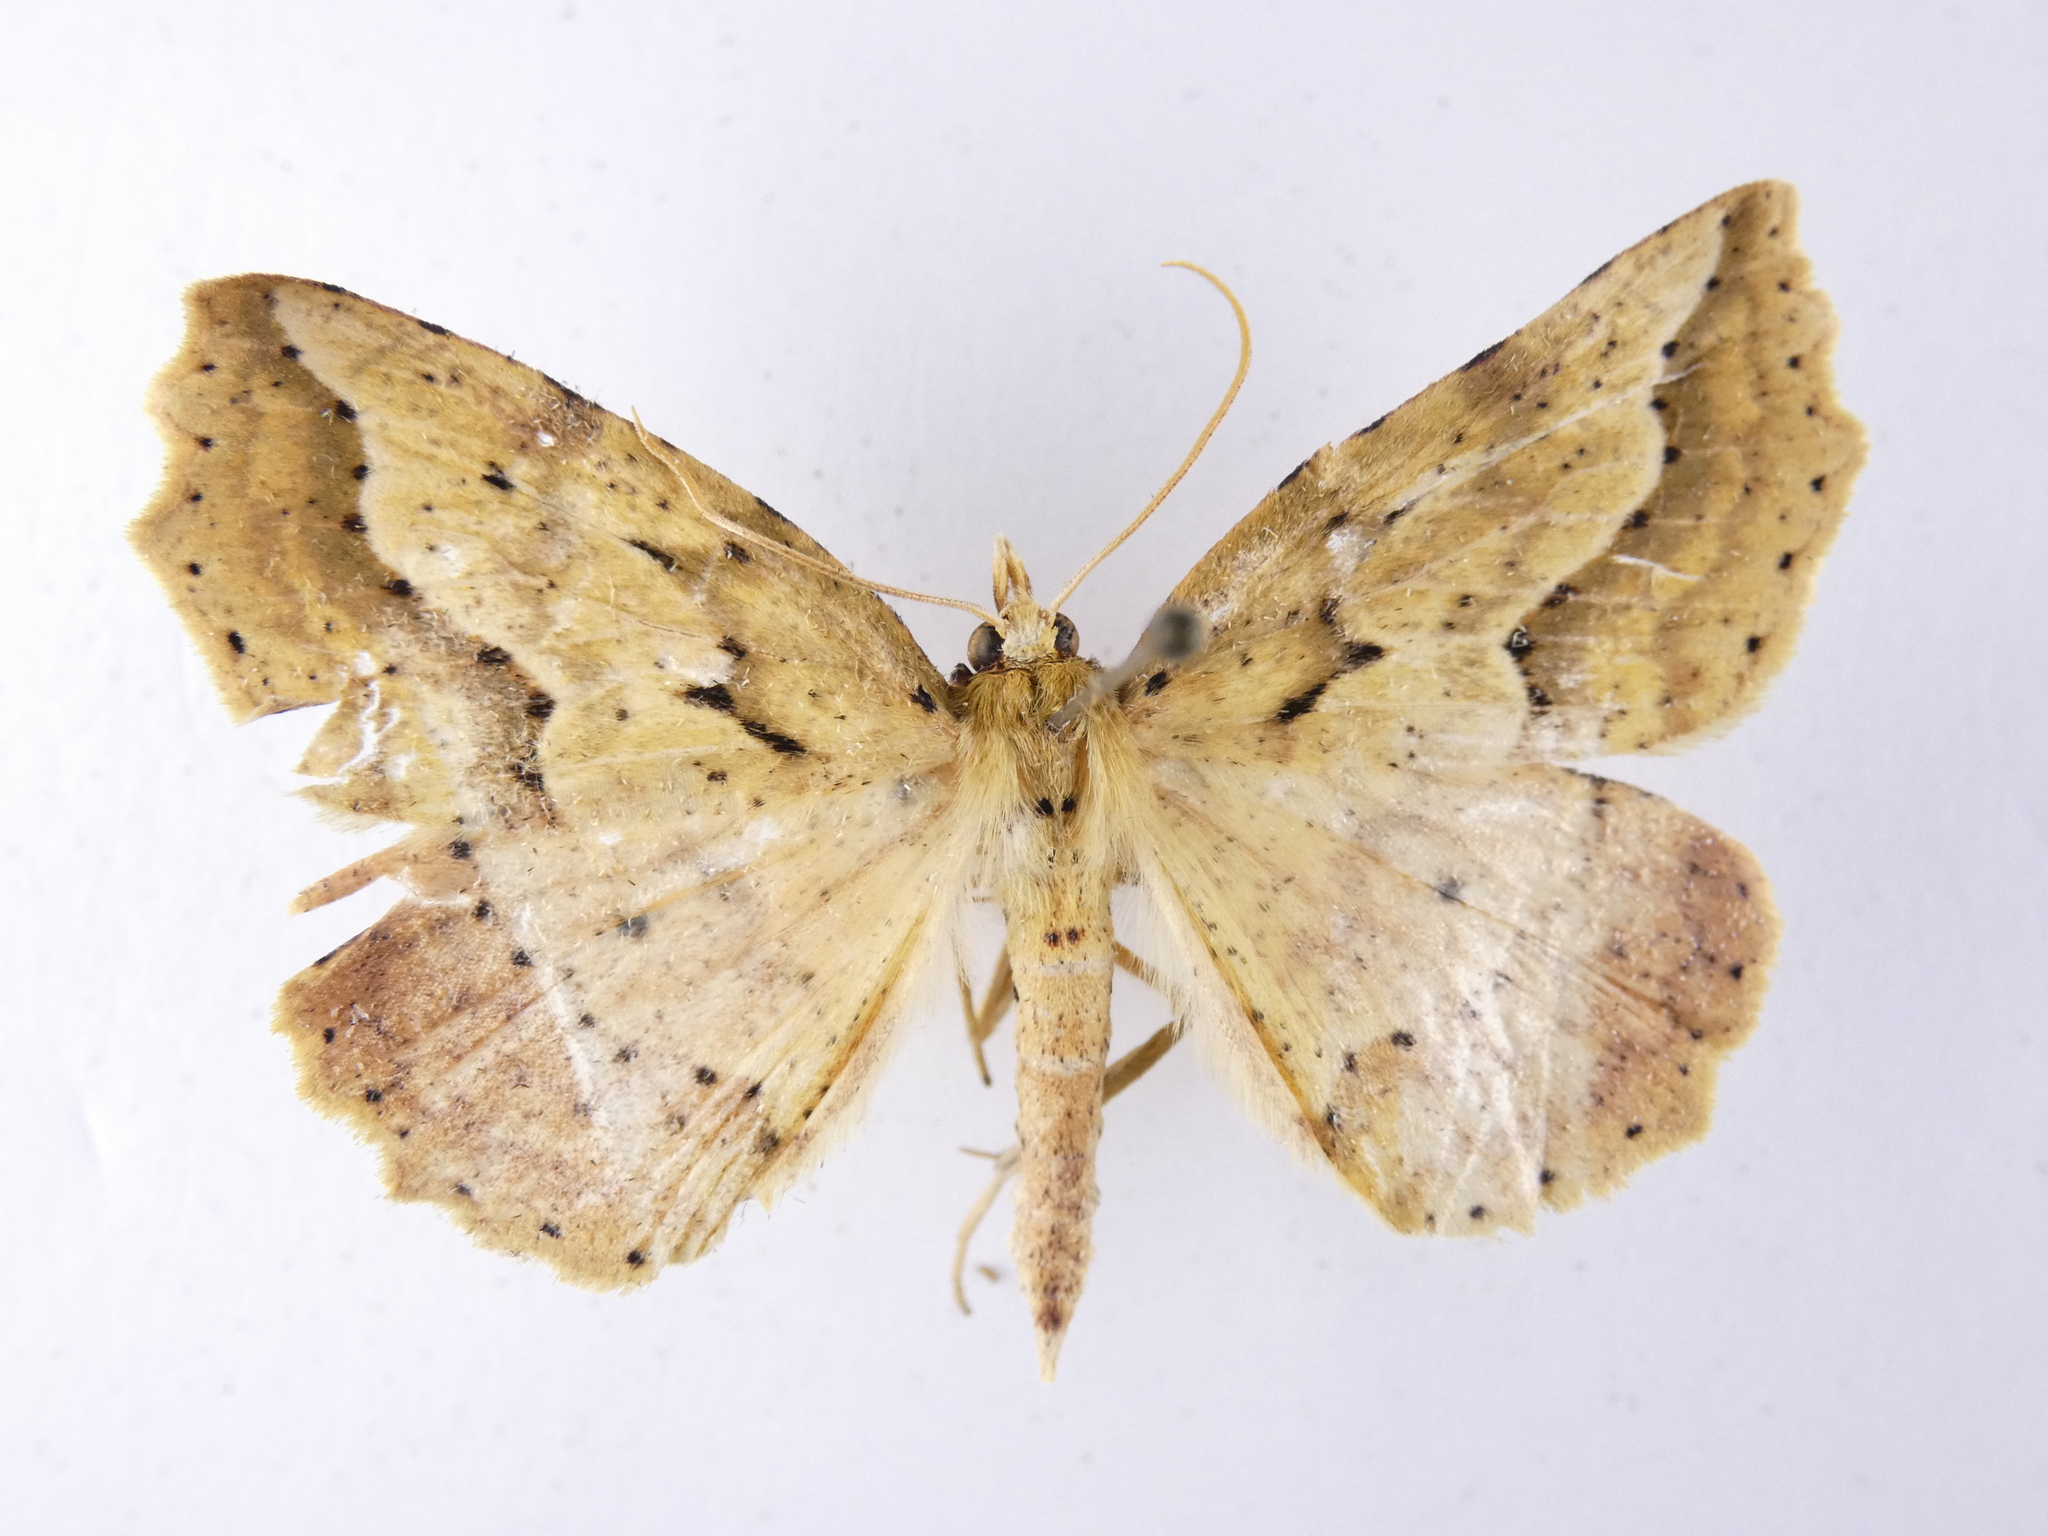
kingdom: Animalia
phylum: Arthropoda
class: Insecta
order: Lepidoptera
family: Geometridae
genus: Ischalis
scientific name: Ischalis variabilis
